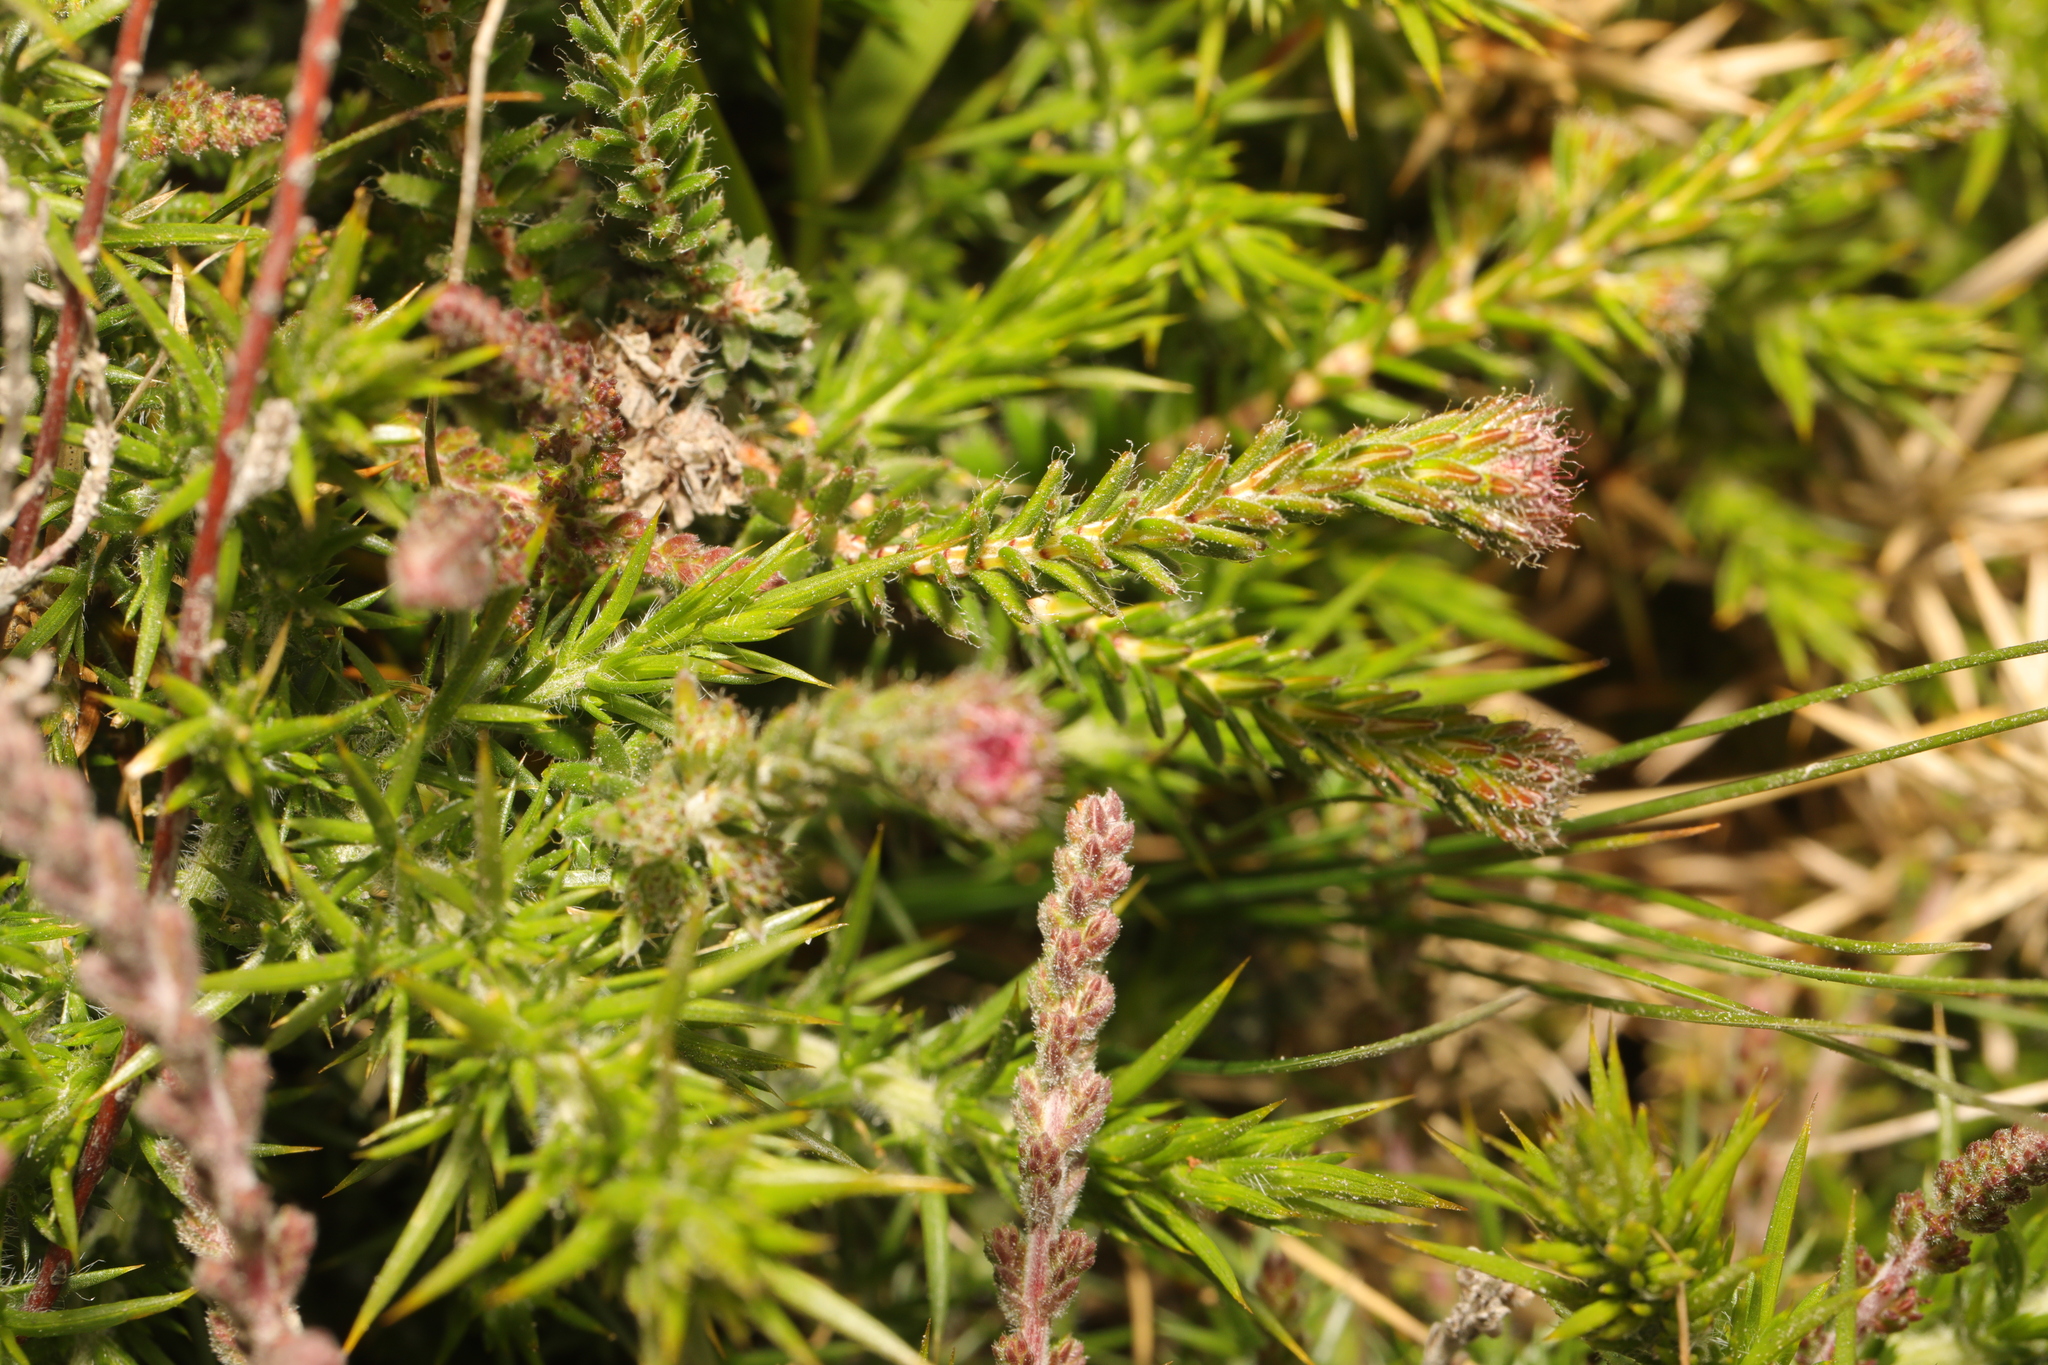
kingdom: Plantae
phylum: Tracheophyta
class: Magnoliopsida
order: Ericales
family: Ericaceae
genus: Erica
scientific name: Erica tetralix
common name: Cross-leaved heath
